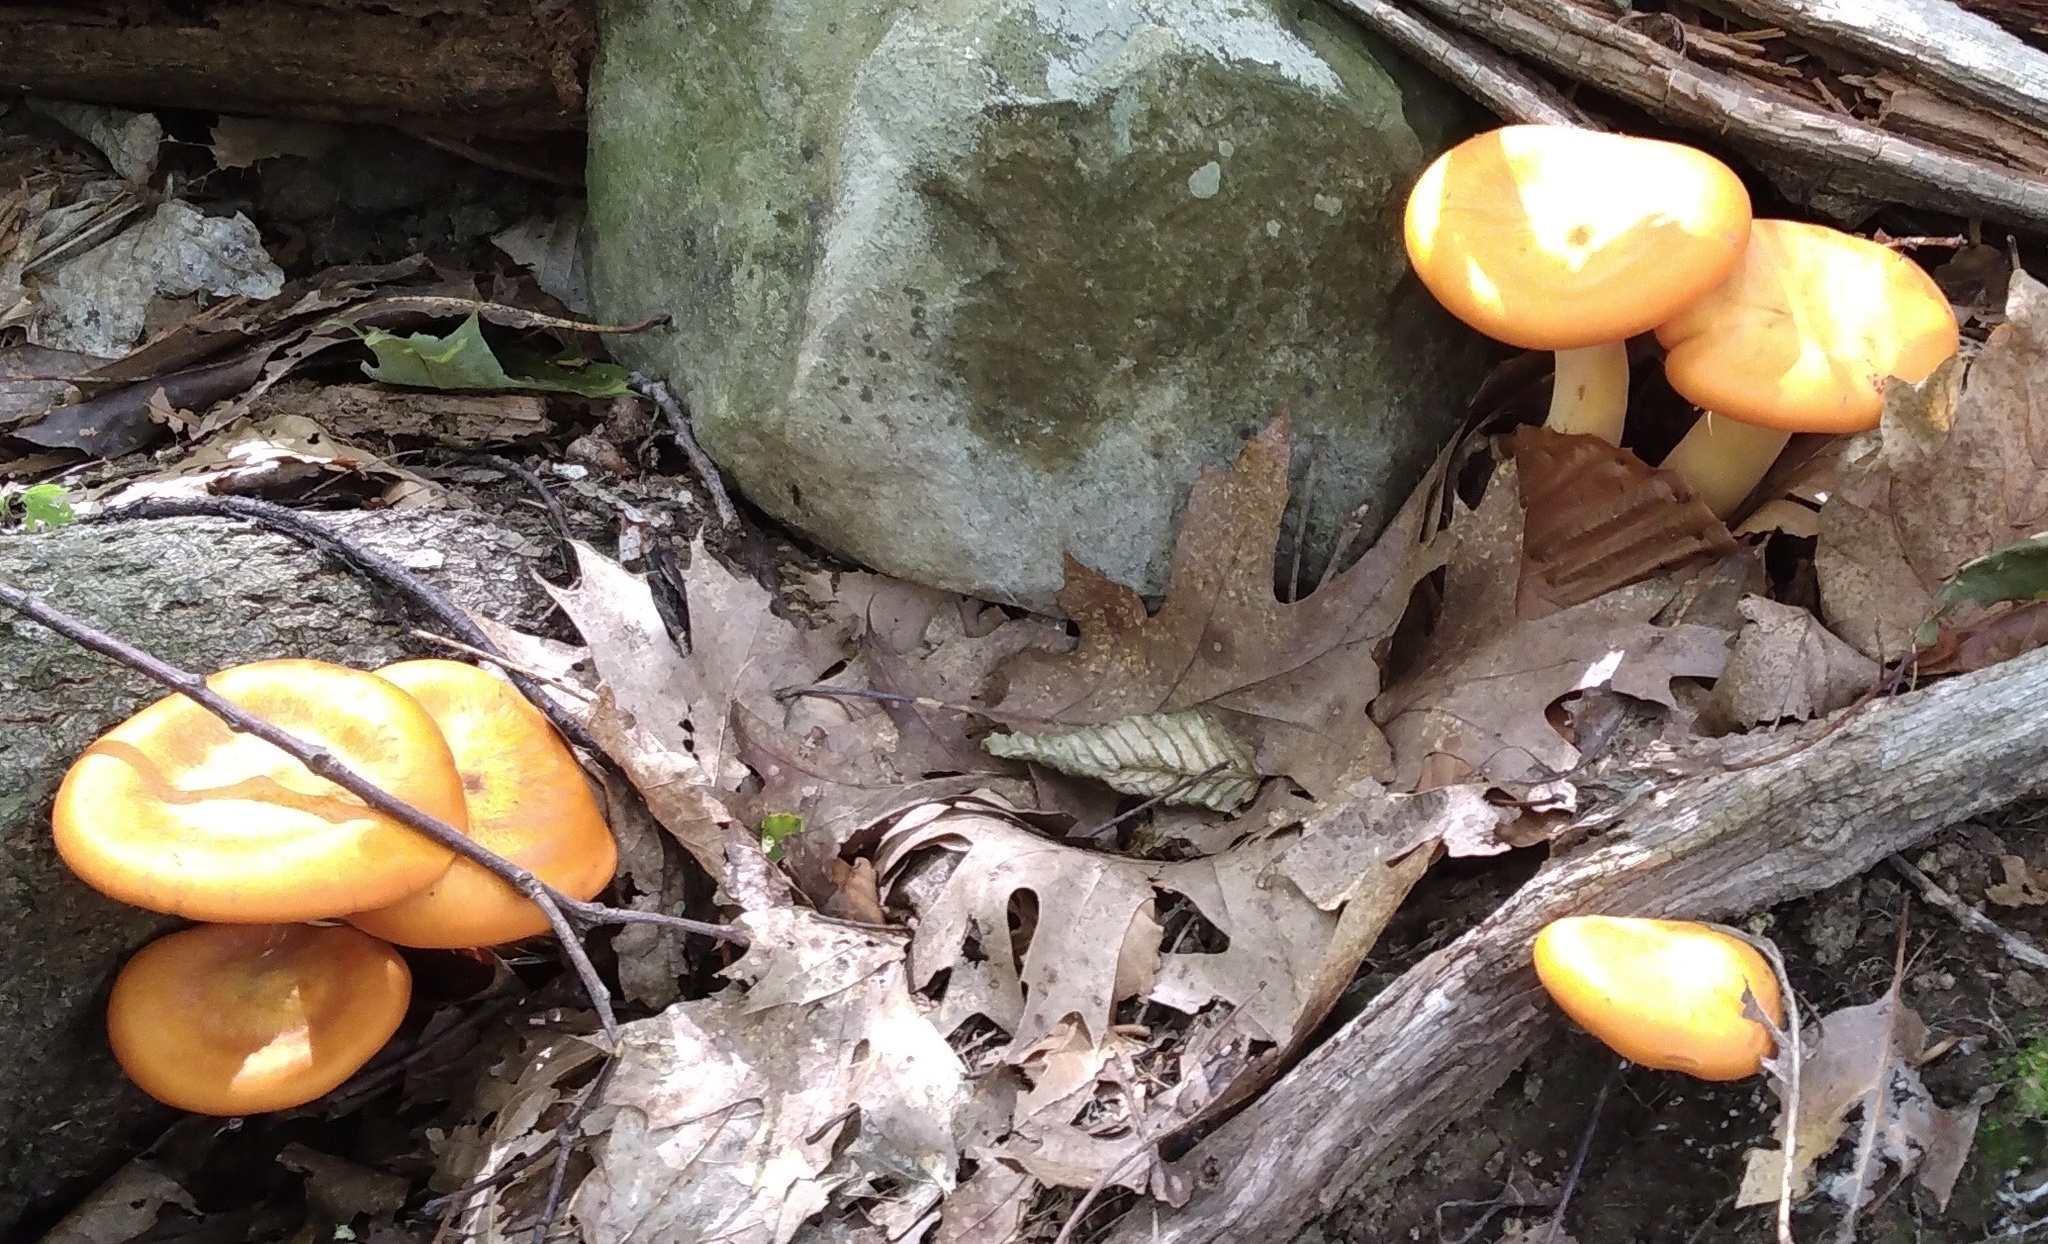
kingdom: Fungi
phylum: Basidiomycota
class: Agaricomycetes
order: Agaricales
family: Omphalotaceae
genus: Omphalotus
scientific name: Omphalotus illudens
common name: Jack o lantern
